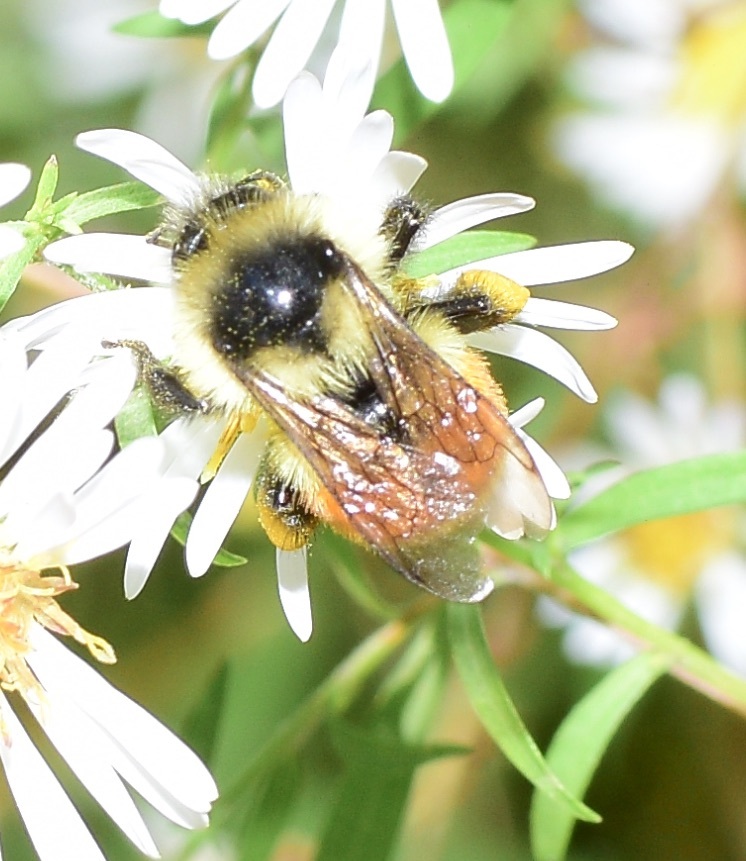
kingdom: Animalia
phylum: Arthropoda
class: Insecta
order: Hymenoptera
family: Apidae
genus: Bombus
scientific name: Bombus ternarius
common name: Tri-colored bumble bee
